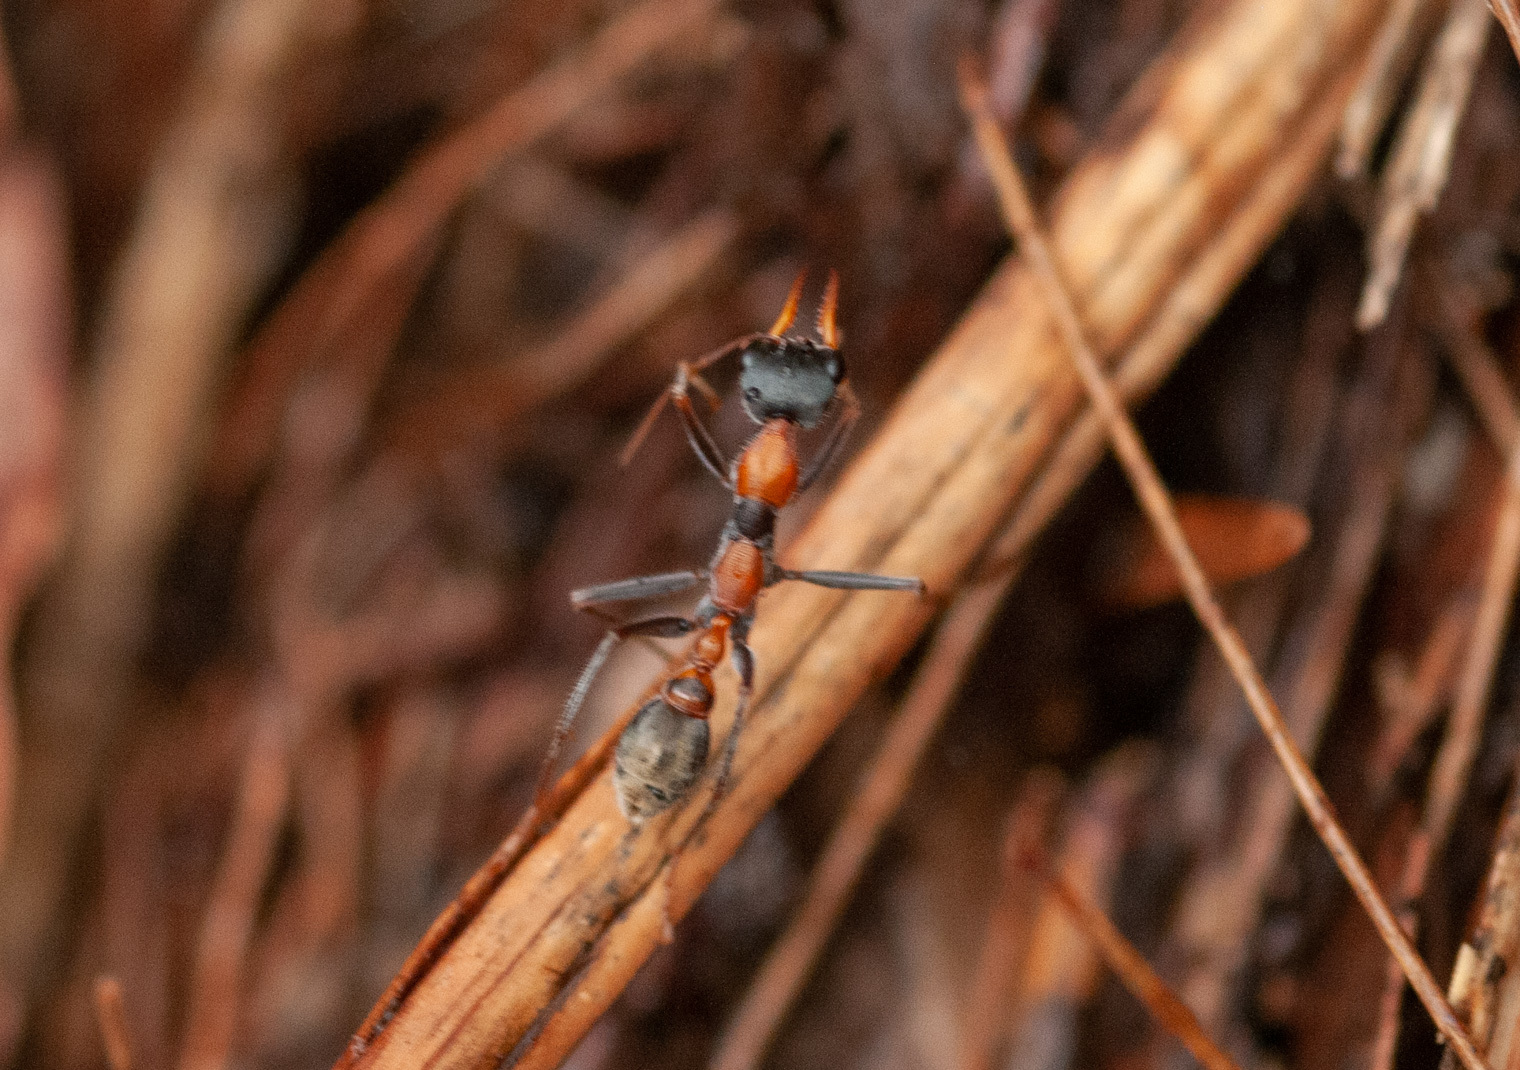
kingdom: Animalia
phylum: Arthropoda
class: Insecta
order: Hymenoptera
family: Formicidae
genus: Myrmecia
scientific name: Myrmecia nigrocincta
